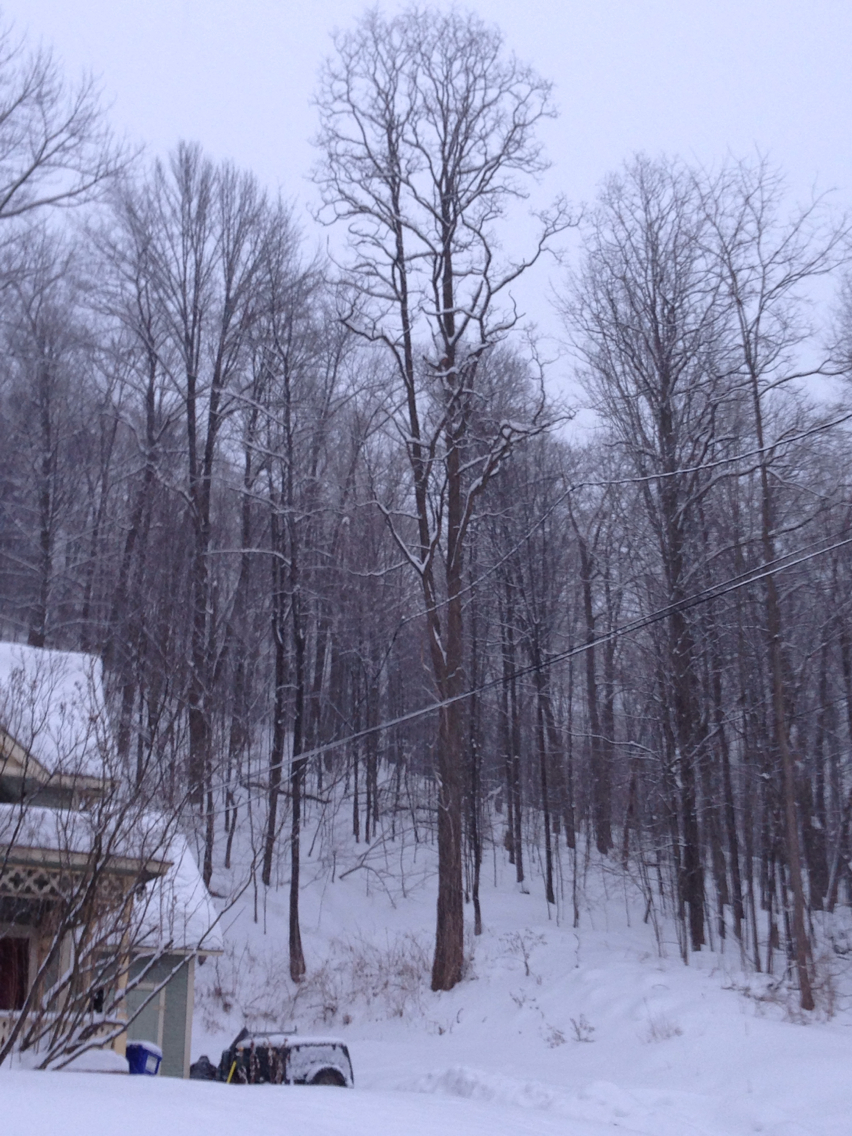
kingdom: Plantae
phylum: Tracheophyta
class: Magnoliopsida
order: Fabales
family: Fabaceae
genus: Robinia
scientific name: Robinia pseudoacacia
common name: Black locust
